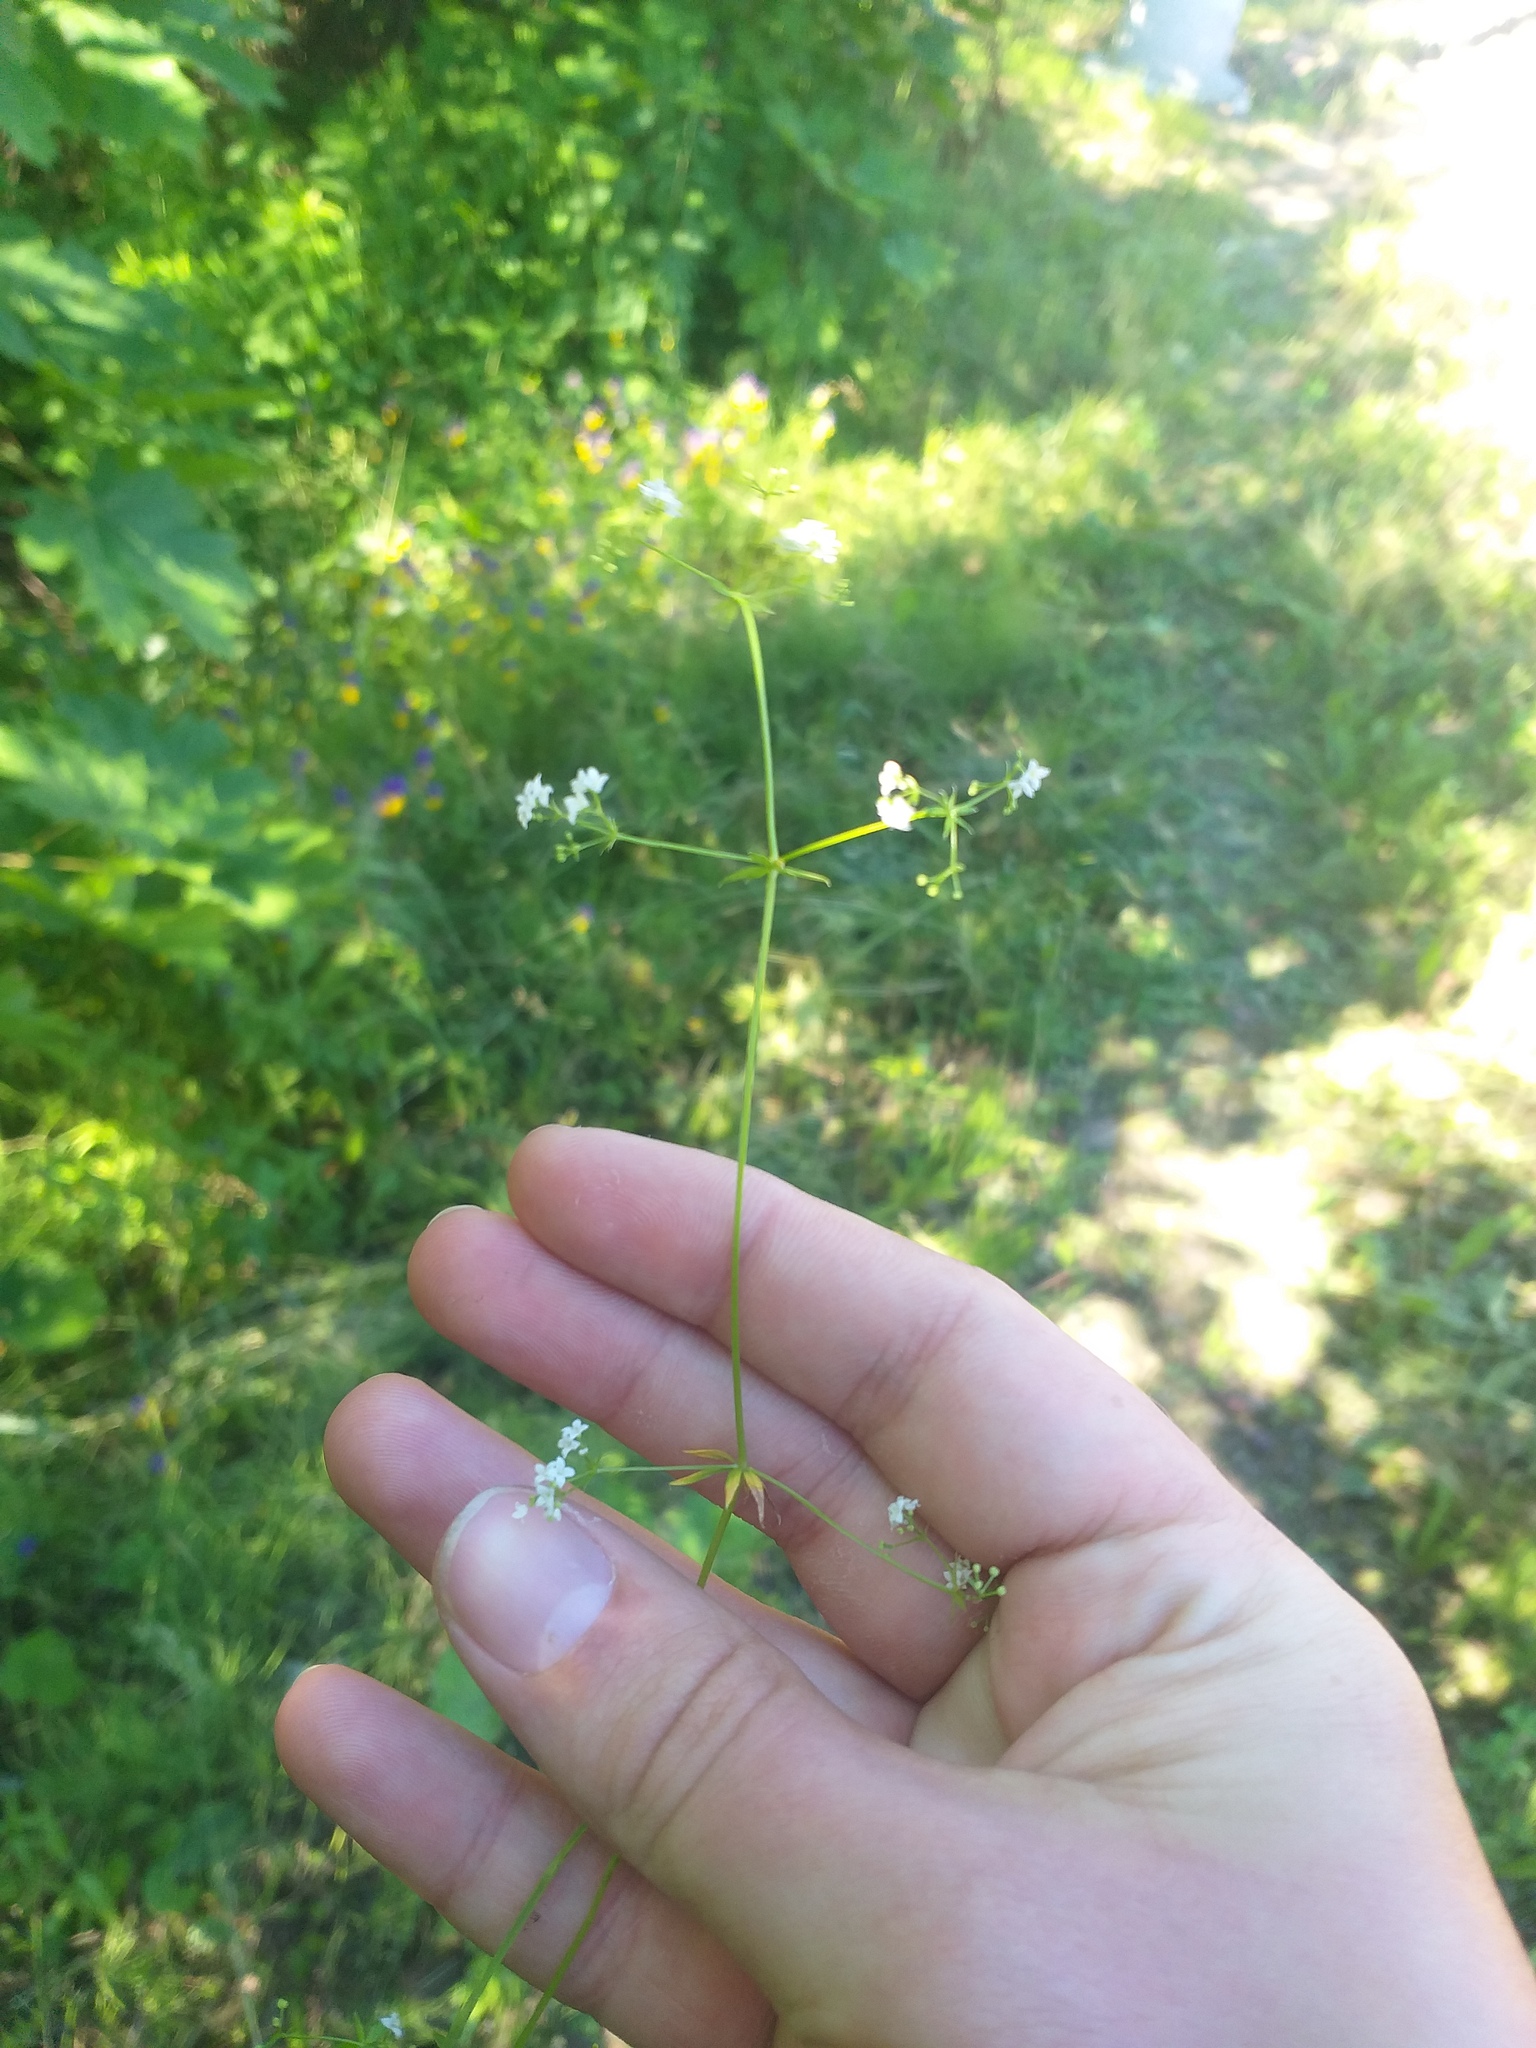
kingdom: Plantae
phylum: Tracheophyta
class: Magnoliopsida
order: Gentianales
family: Rubiaceae
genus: Galium
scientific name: Galium uliginosum
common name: Fen bedstraw
